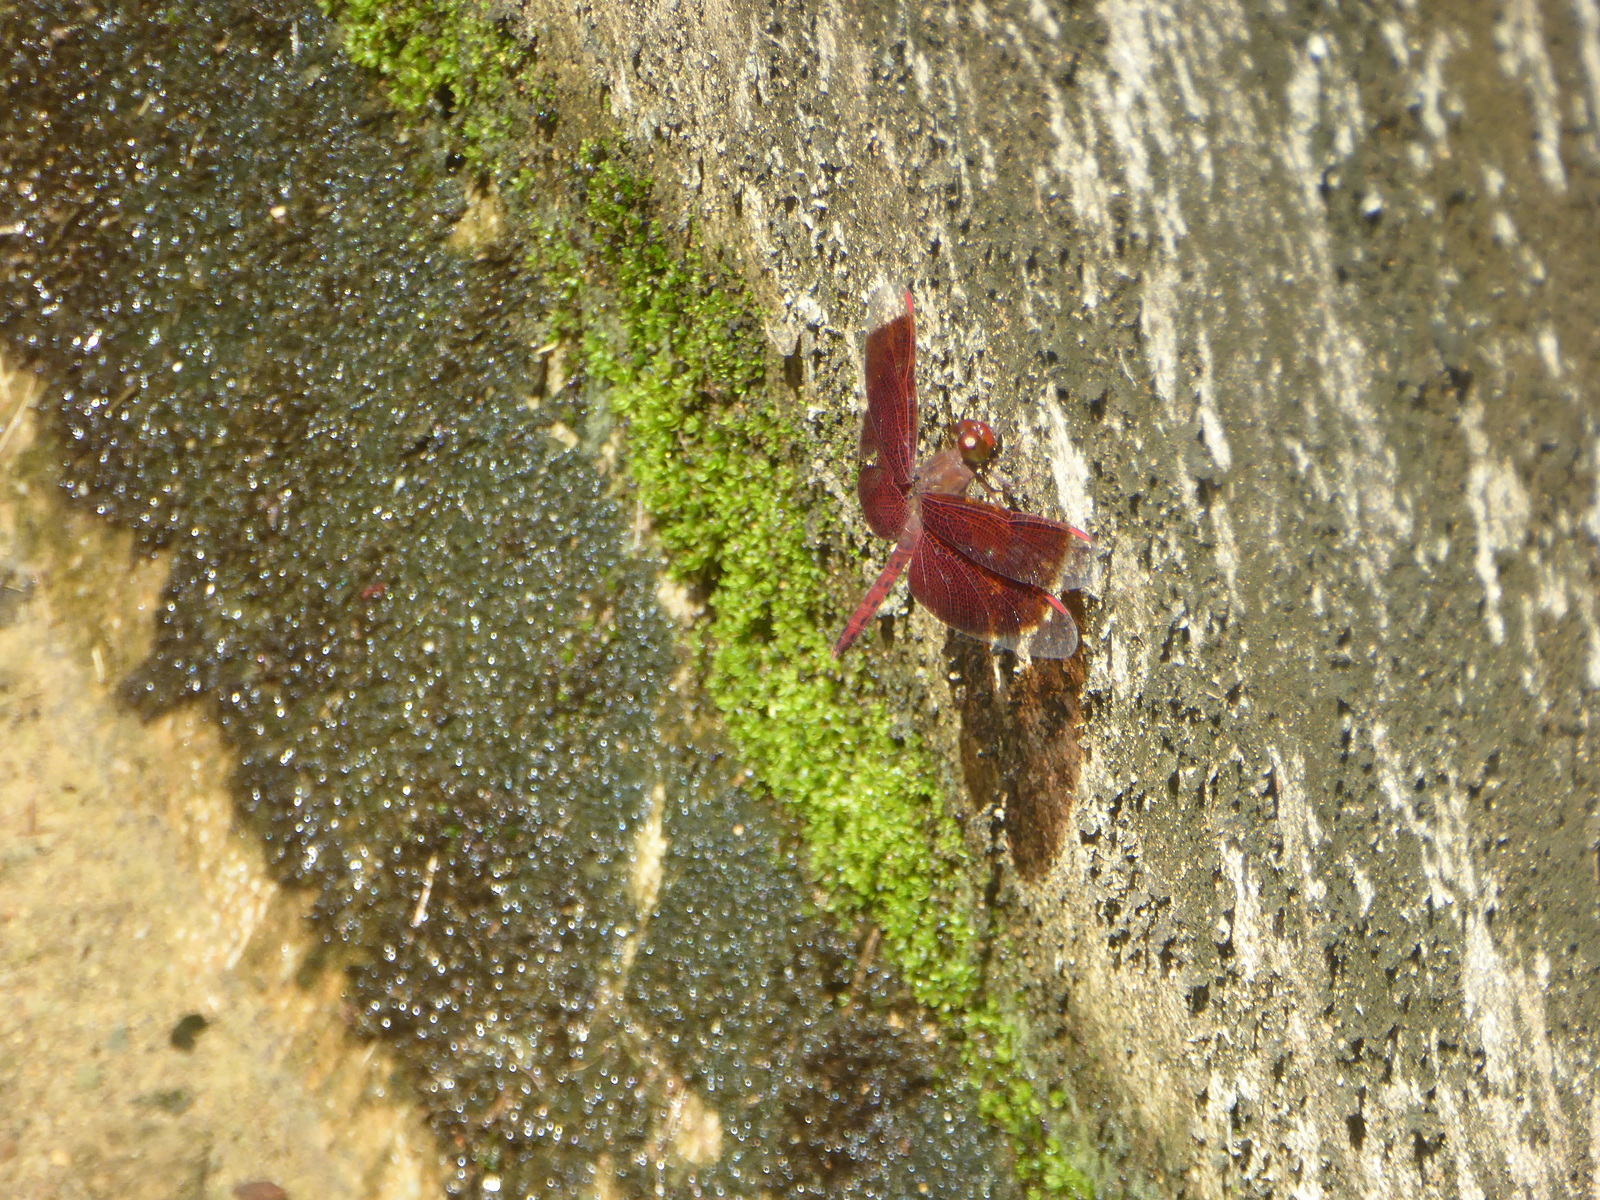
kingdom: Animalia
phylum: Arthropoda
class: Insecta
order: Odonata
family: Libellulidae
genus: Neurothemis
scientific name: Neurothemis fluctuans
